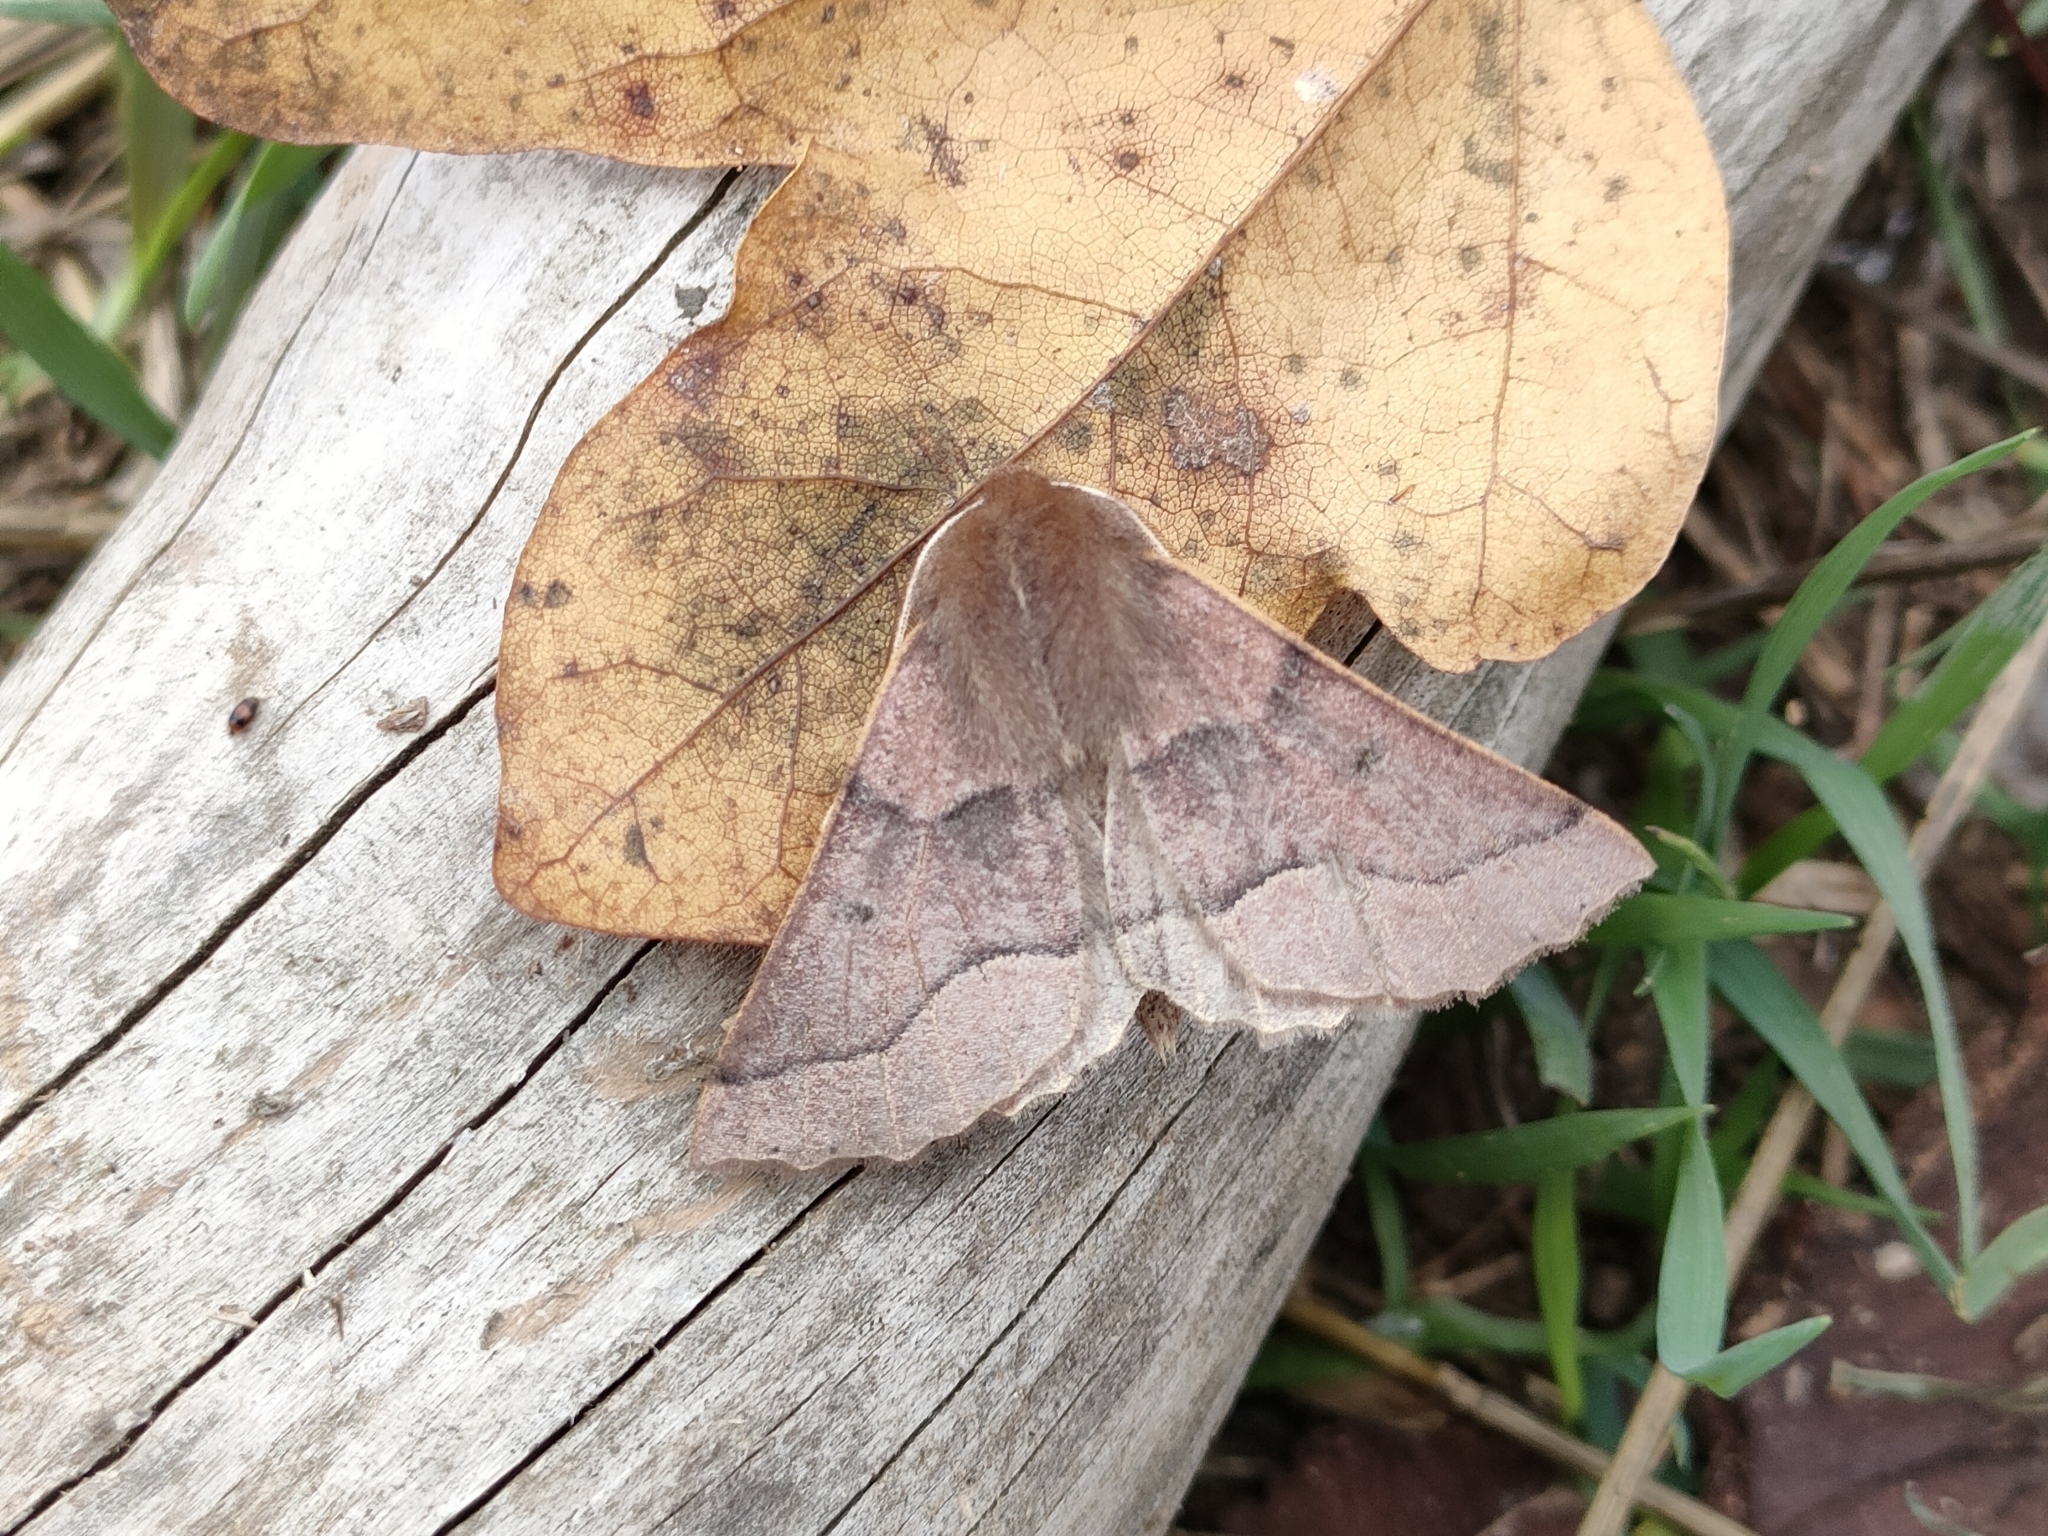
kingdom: Animalia
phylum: Arthropoda
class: Insecta
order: Lepidoptera
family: Geometridae
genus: Crocallis
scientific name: Crocallis tusciaria
